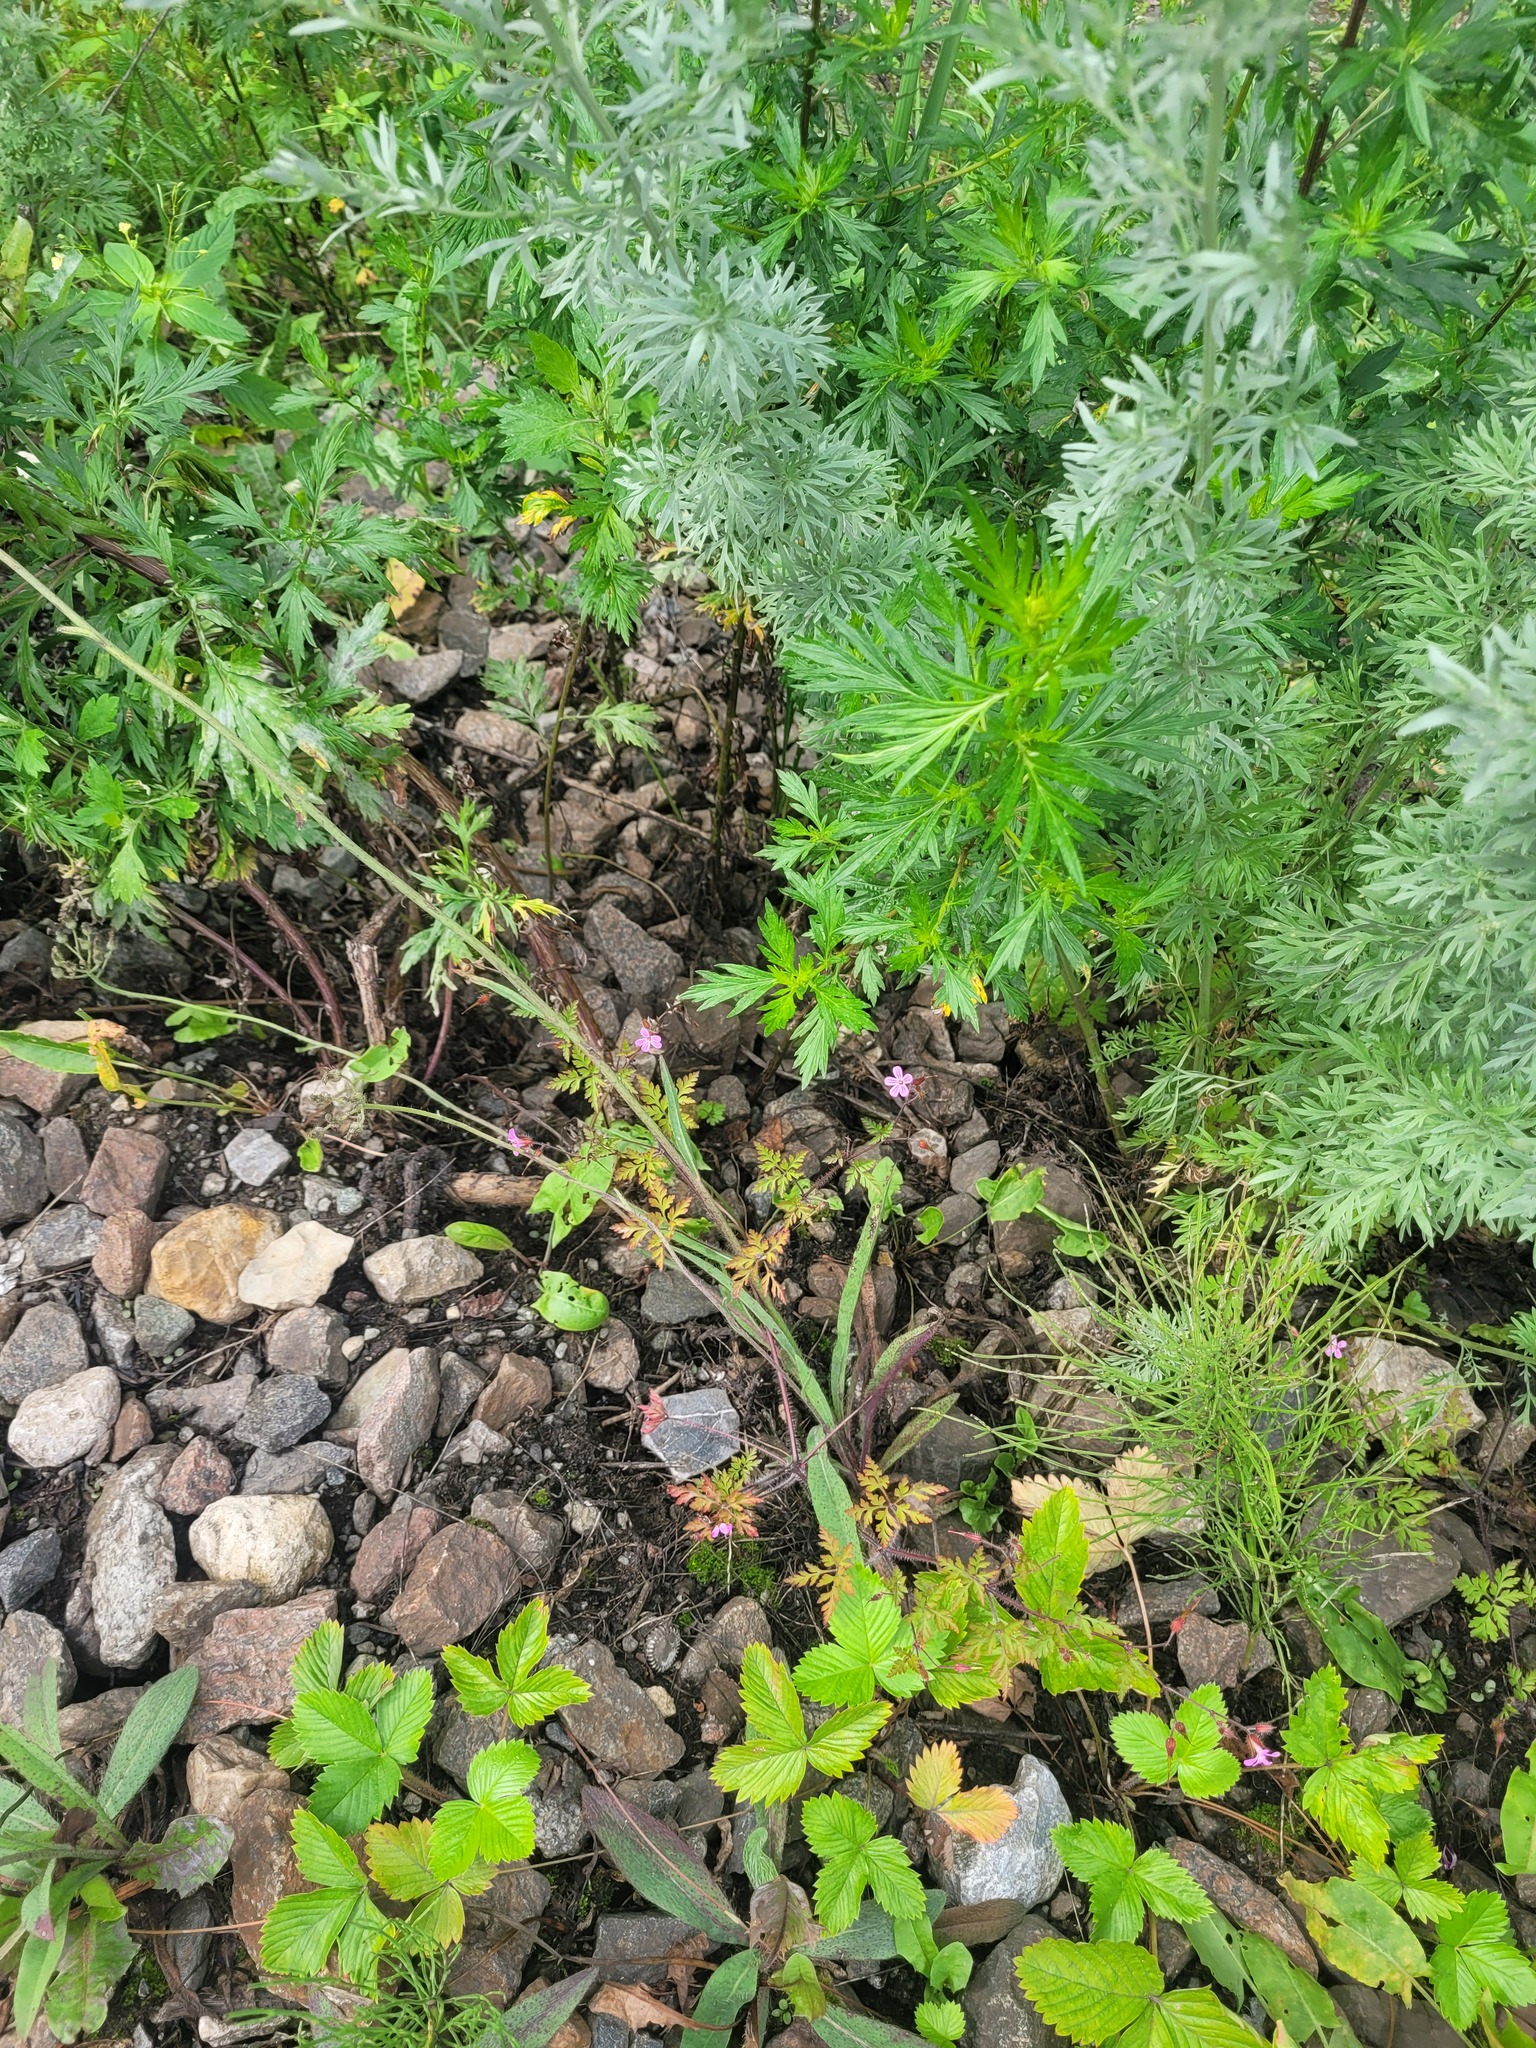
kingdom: Plantae
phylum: Tracheophyta
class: Magnoliopsida
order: Geraniales
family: Geraniaceae
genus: Geranium
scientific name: Geranium robertianum
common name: Herb-robert
